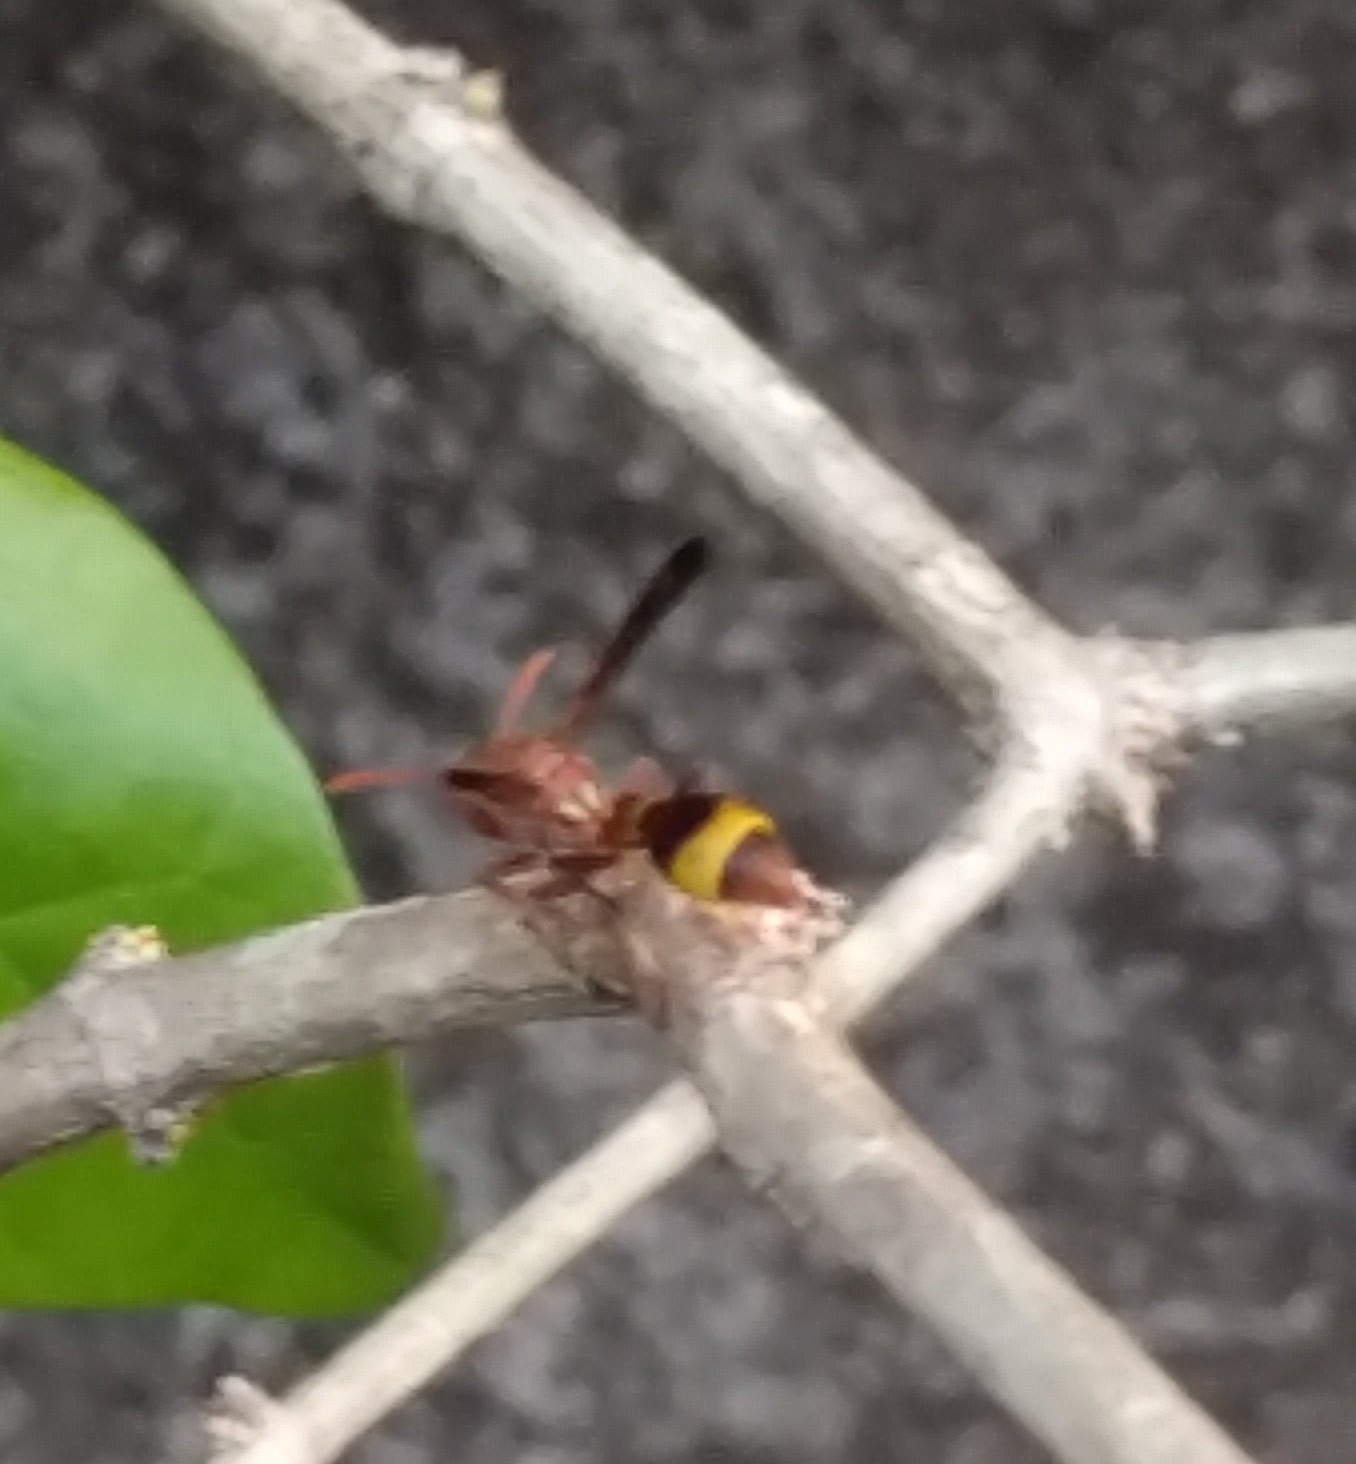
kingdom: Animalia
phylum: Arthropoda
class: Insecta
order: Hymenoptera
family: Vespidae
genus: Ropalidia
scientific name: Ropalidia
